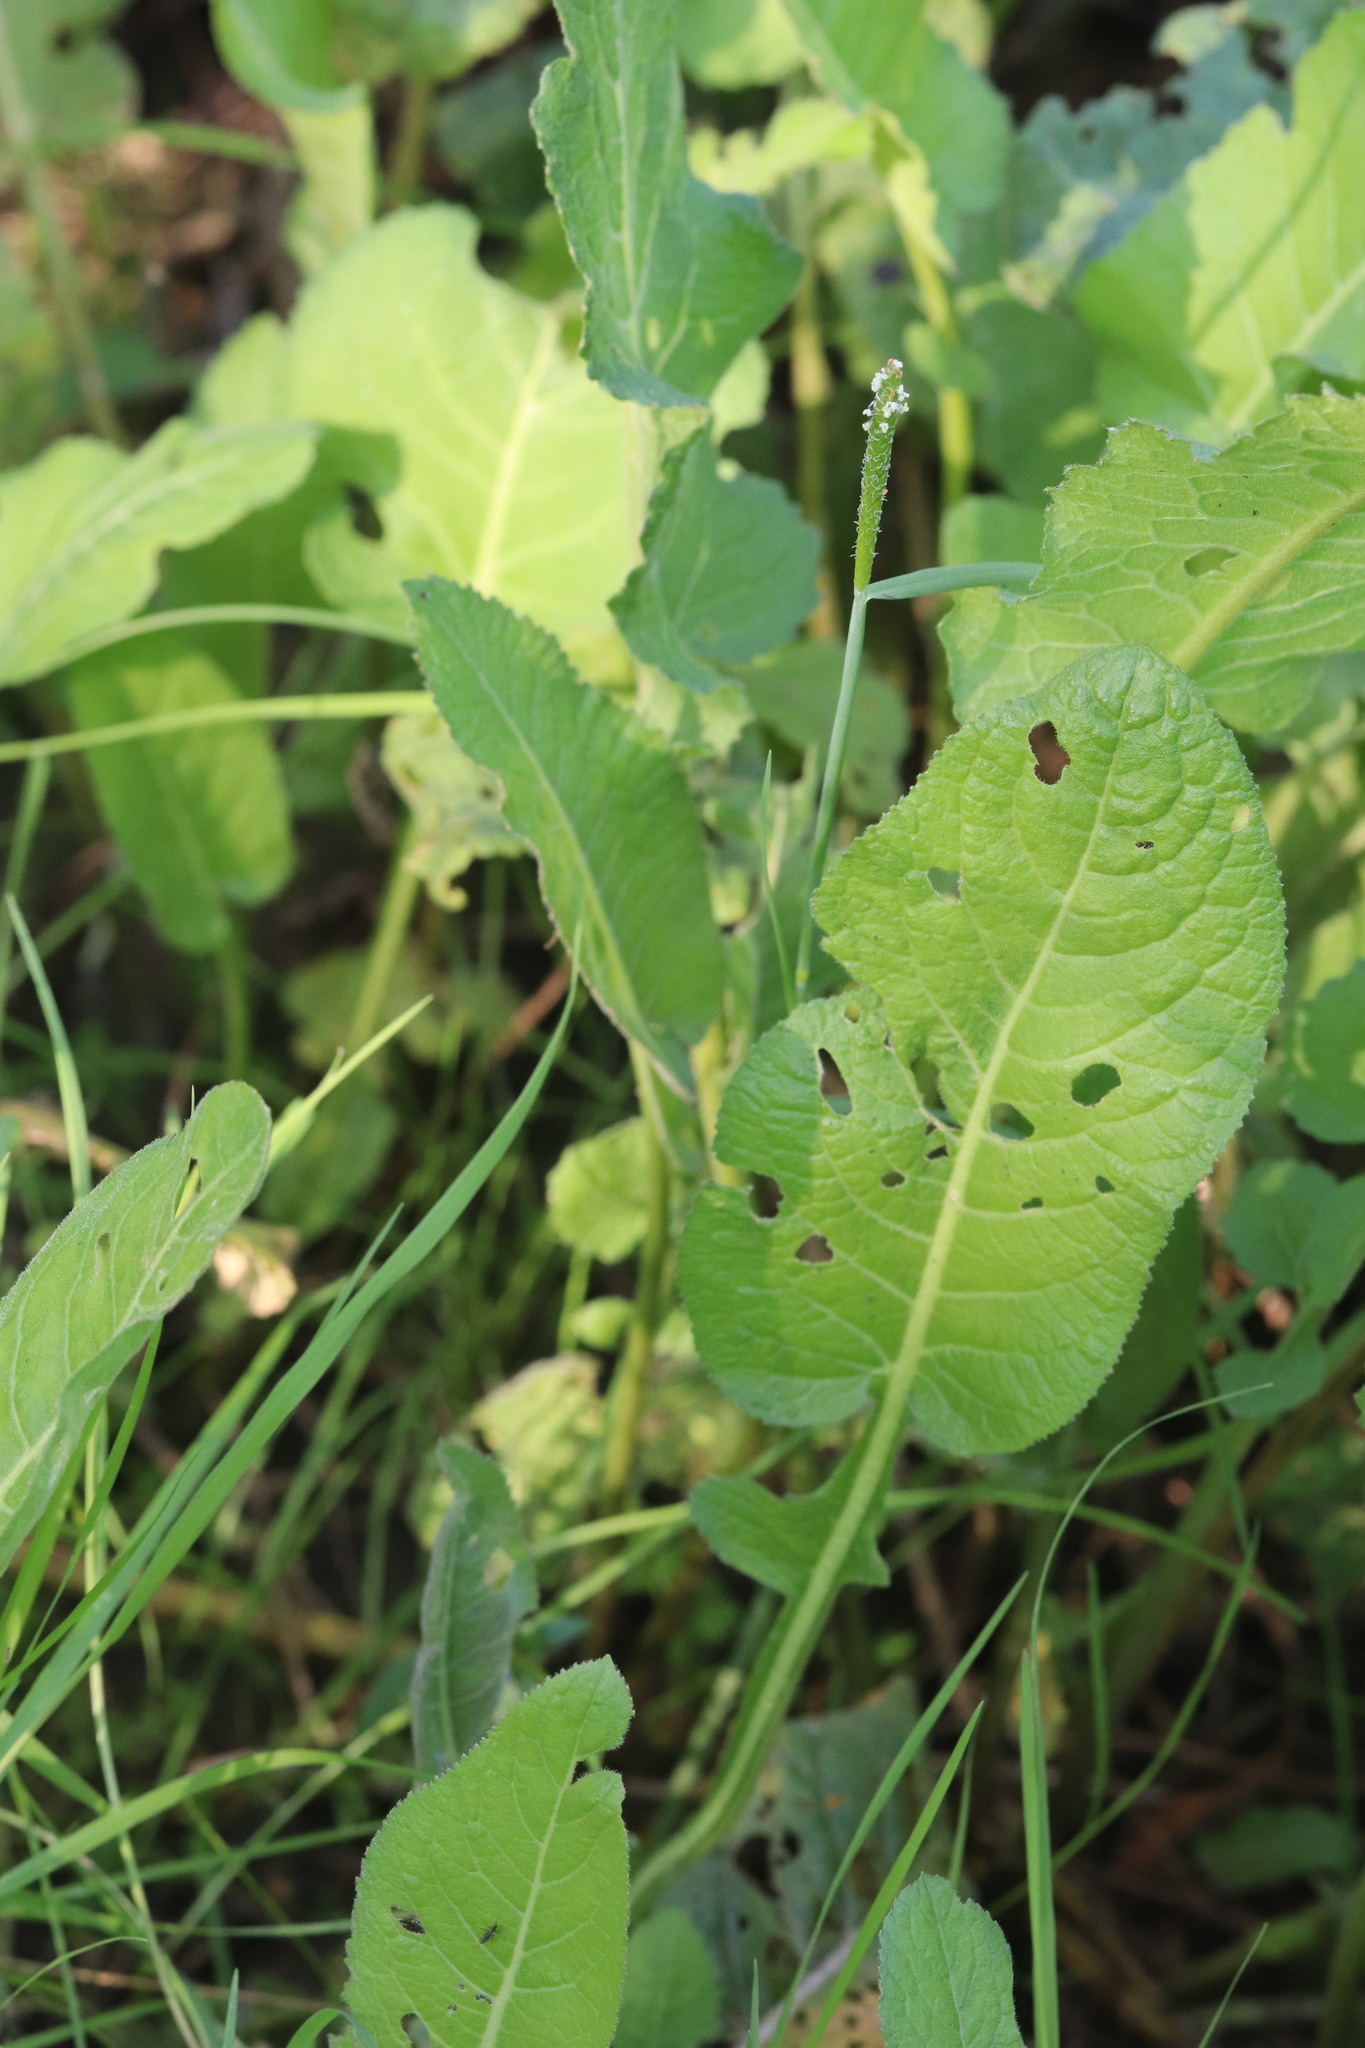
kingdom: Plantae
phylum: Tracheophyta
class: Liliopsida
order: Poales
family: Poaceae
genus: Alopecurus
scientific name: Alopecurus aequalis
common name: Orange foxtail
